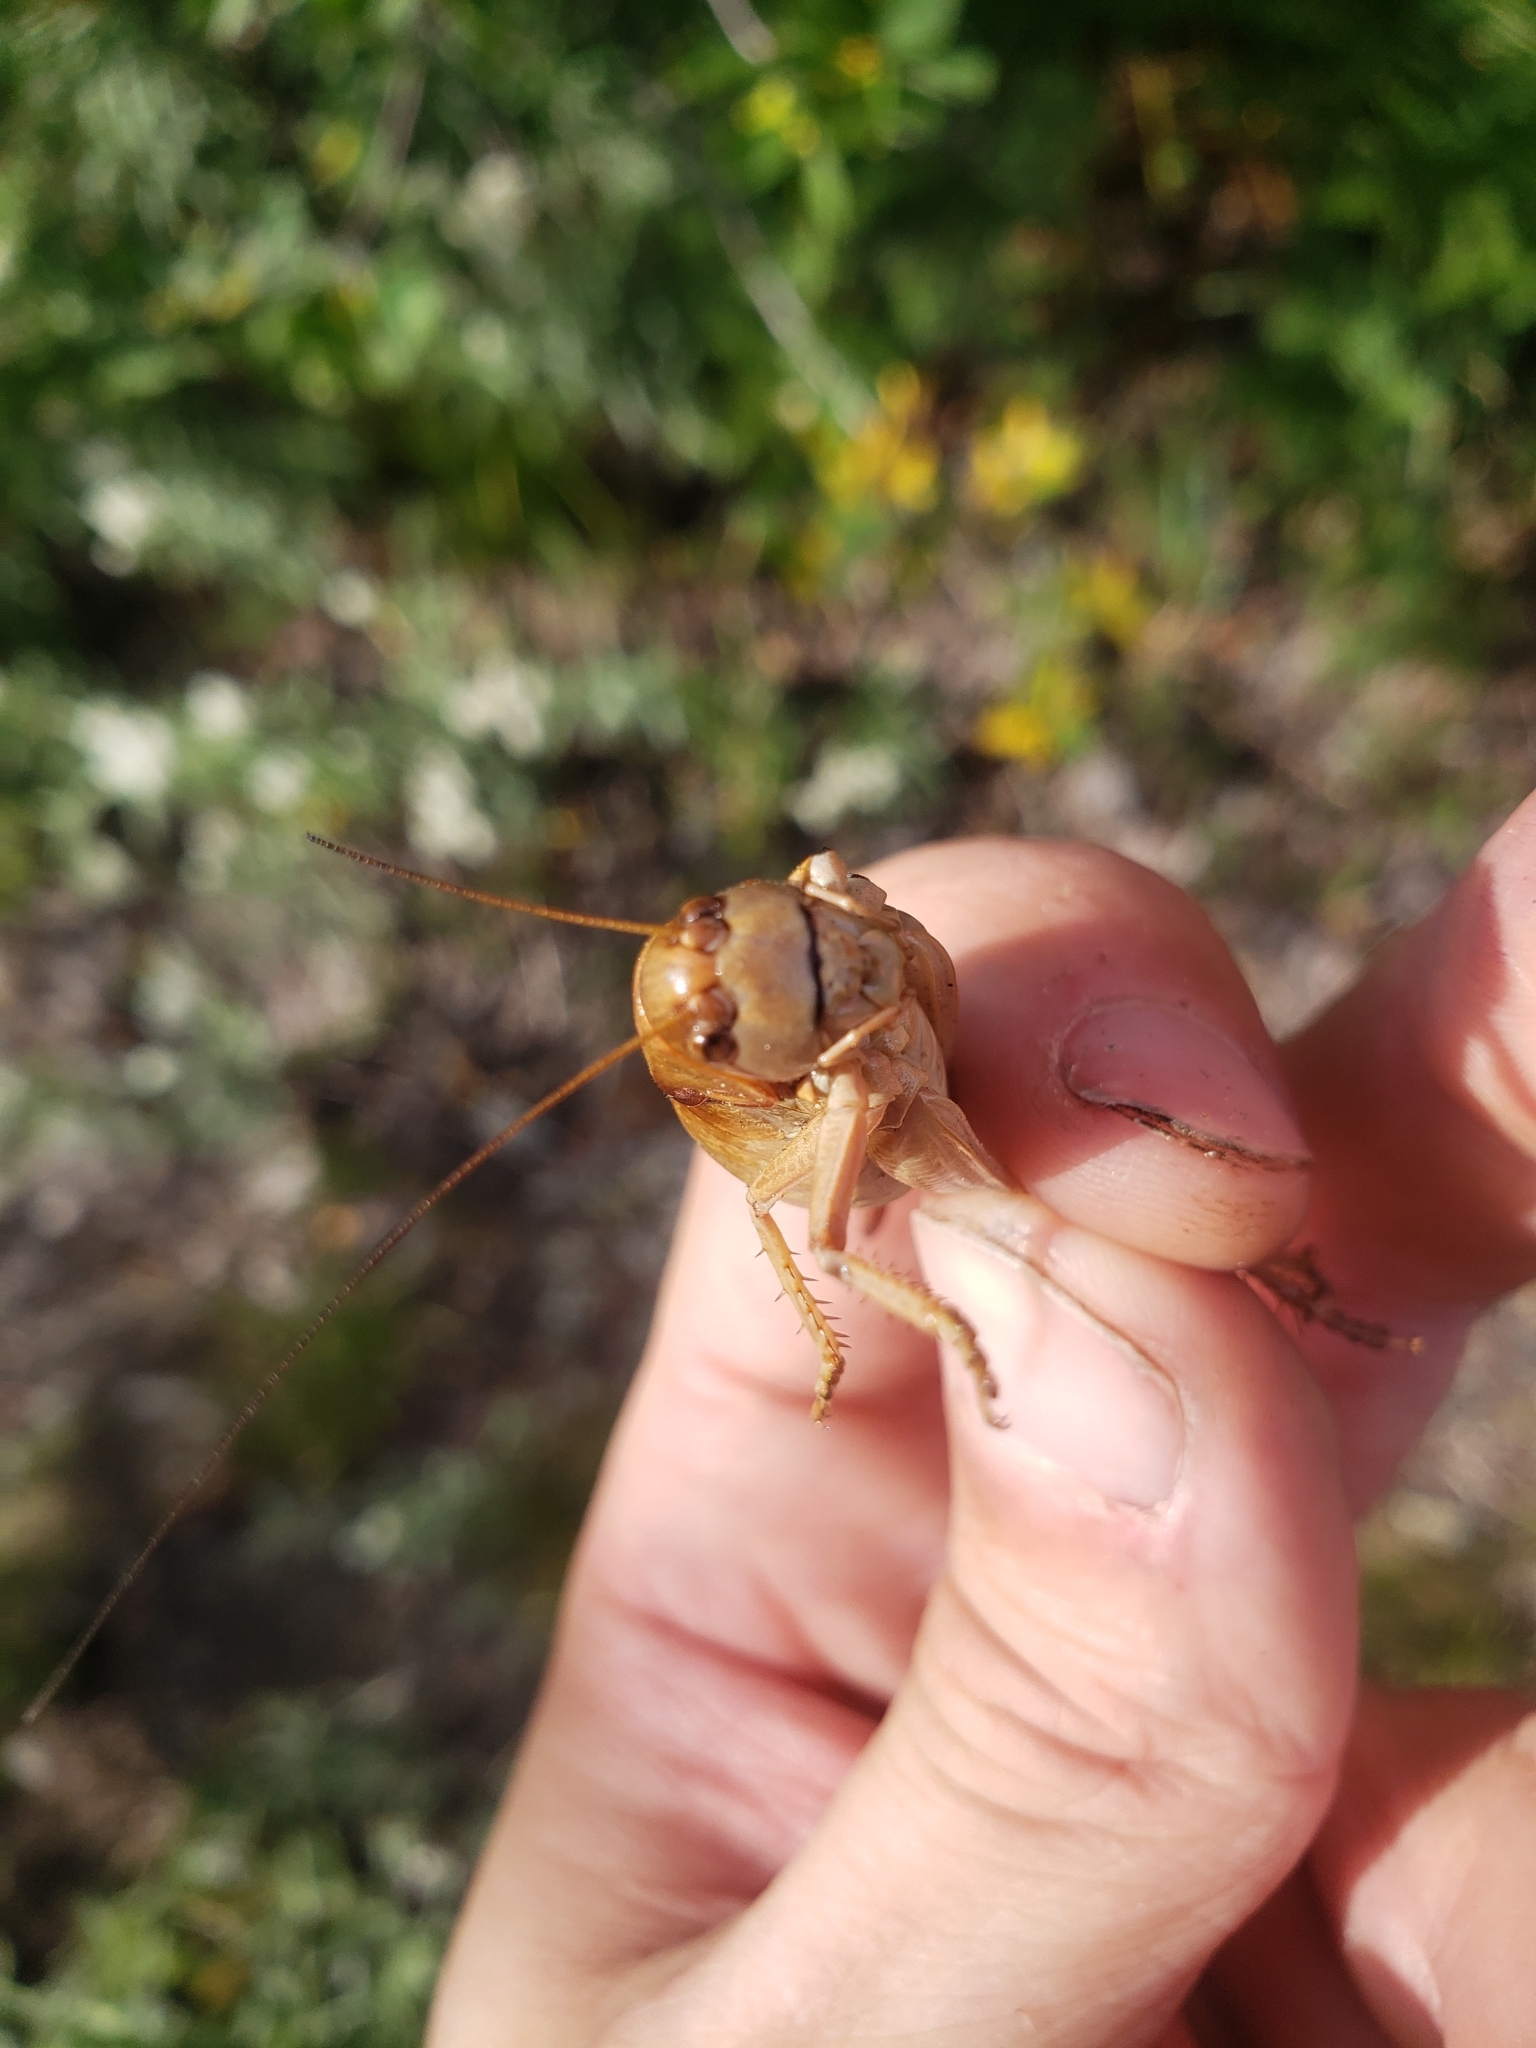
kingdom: Animalia
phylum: Arthropoda
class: Insecta
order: Orthoptera
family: Tettigoniidae
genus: Anabrus
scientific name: Anabrus simplex
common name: Mormon cricket
